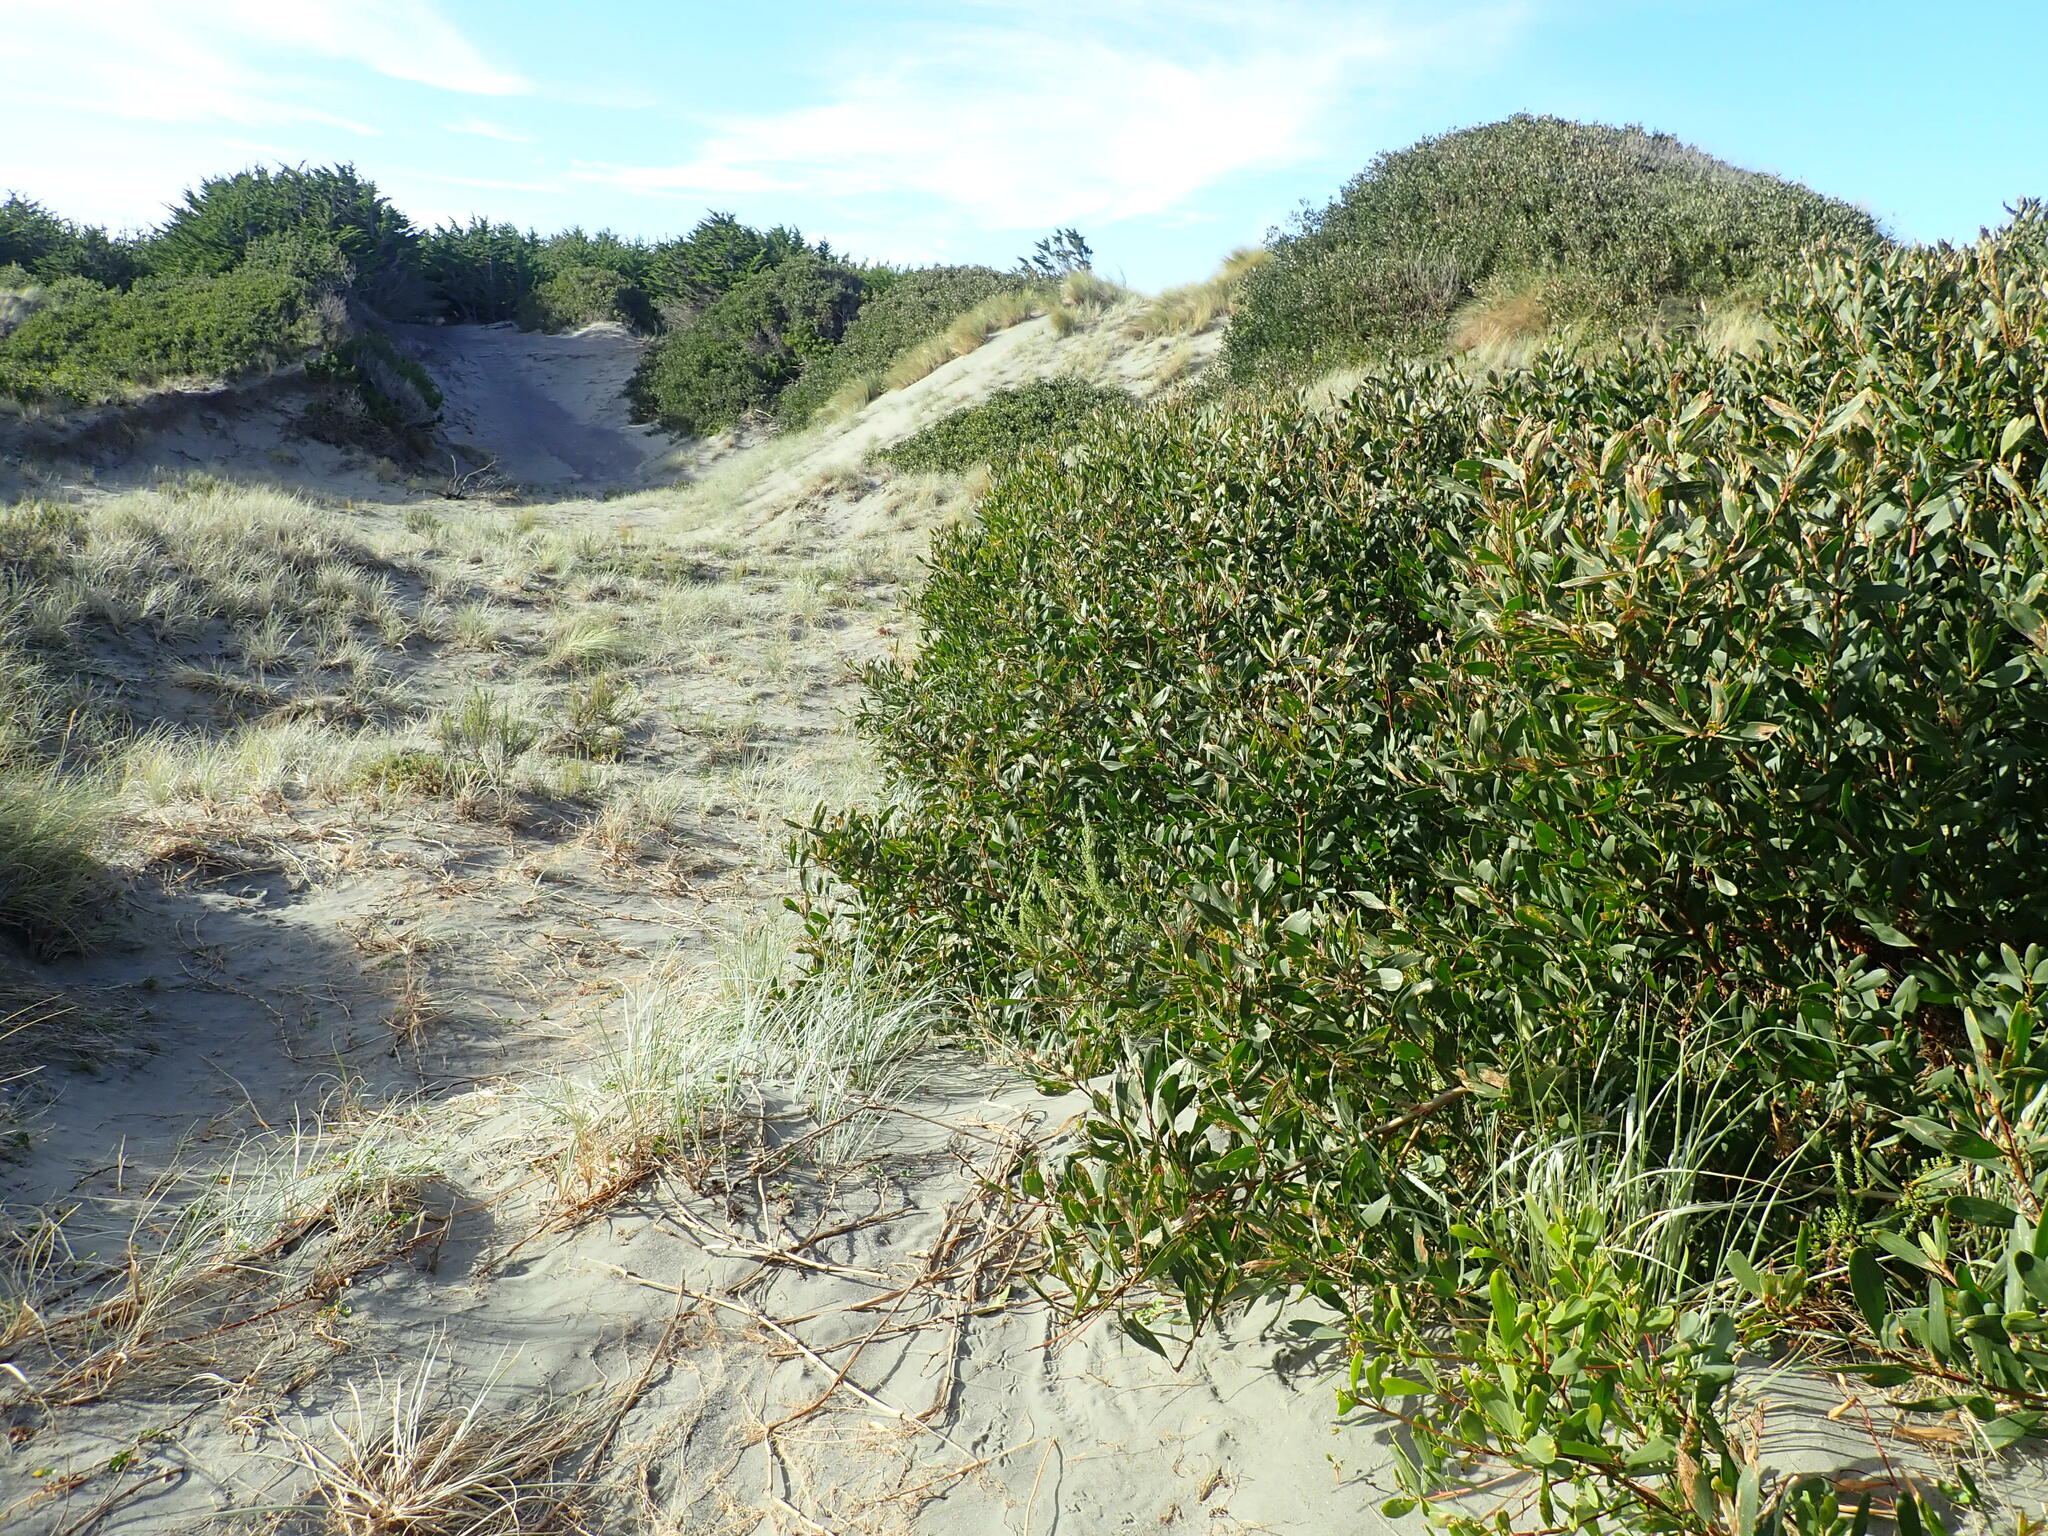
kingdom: Plantae
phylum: Tracheophyta
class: Magnoliopsida
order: Fabales
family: Fabaceae
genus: Acacia
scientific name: Acacia longifolia
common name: Sydney golden wattle
